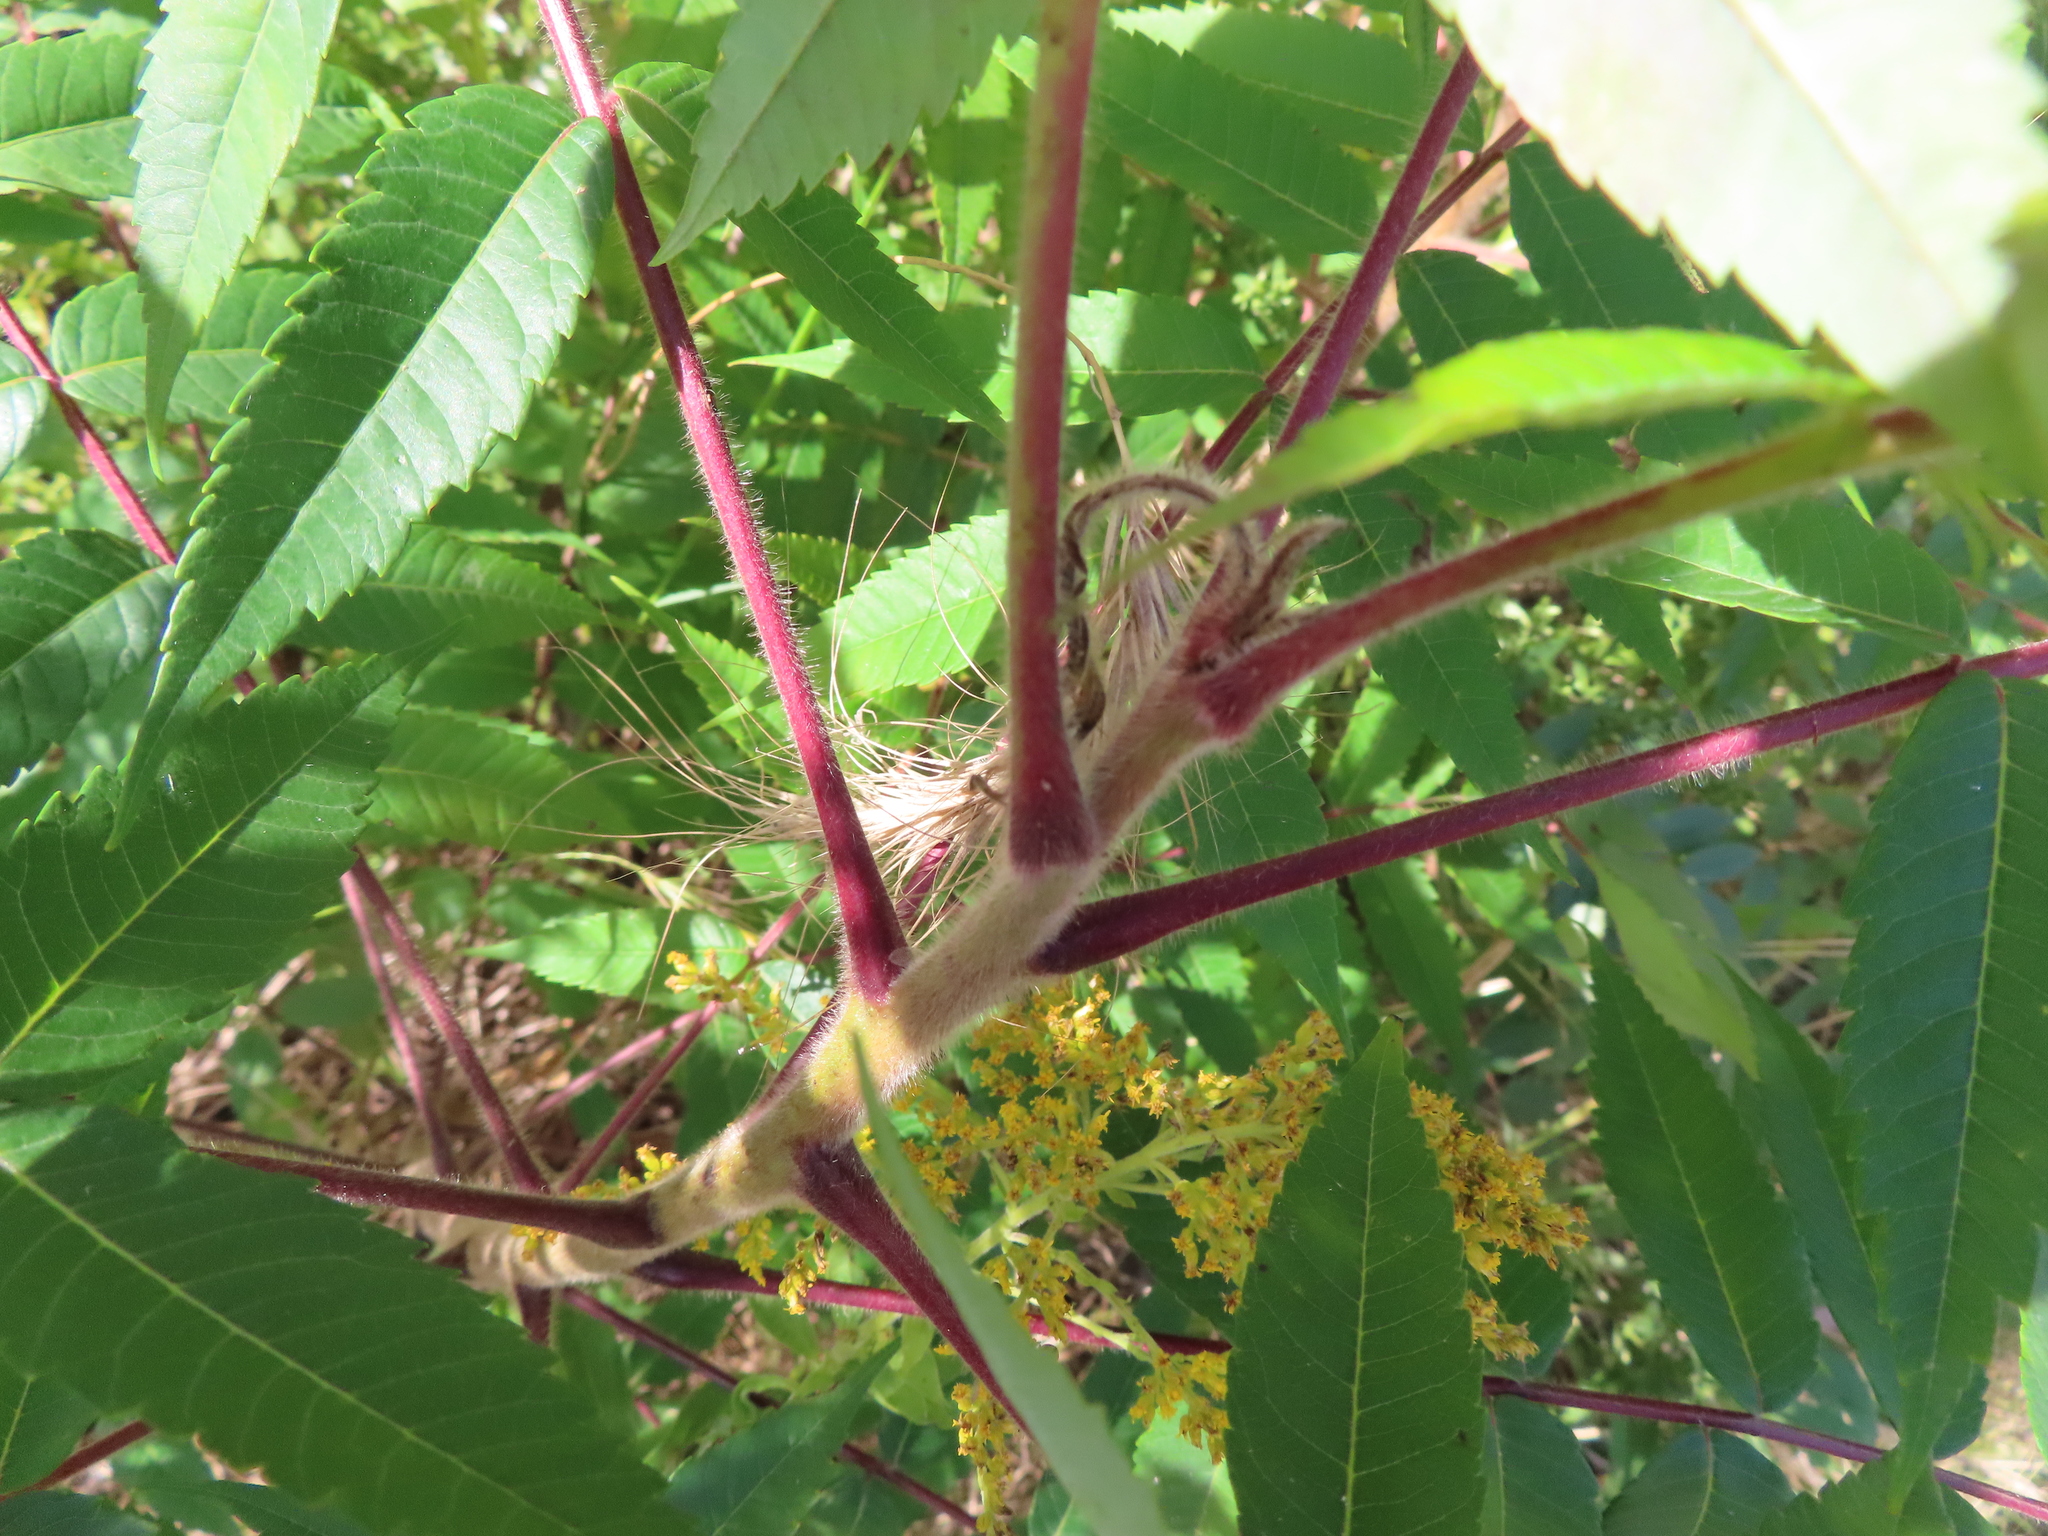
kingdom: Plantae
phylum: Tracheophyta
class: Magnoliopsida
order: Sapindales
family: Anacardiaceae
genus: Rhus
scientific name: Rhus typhina
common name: Staghorn sumac
